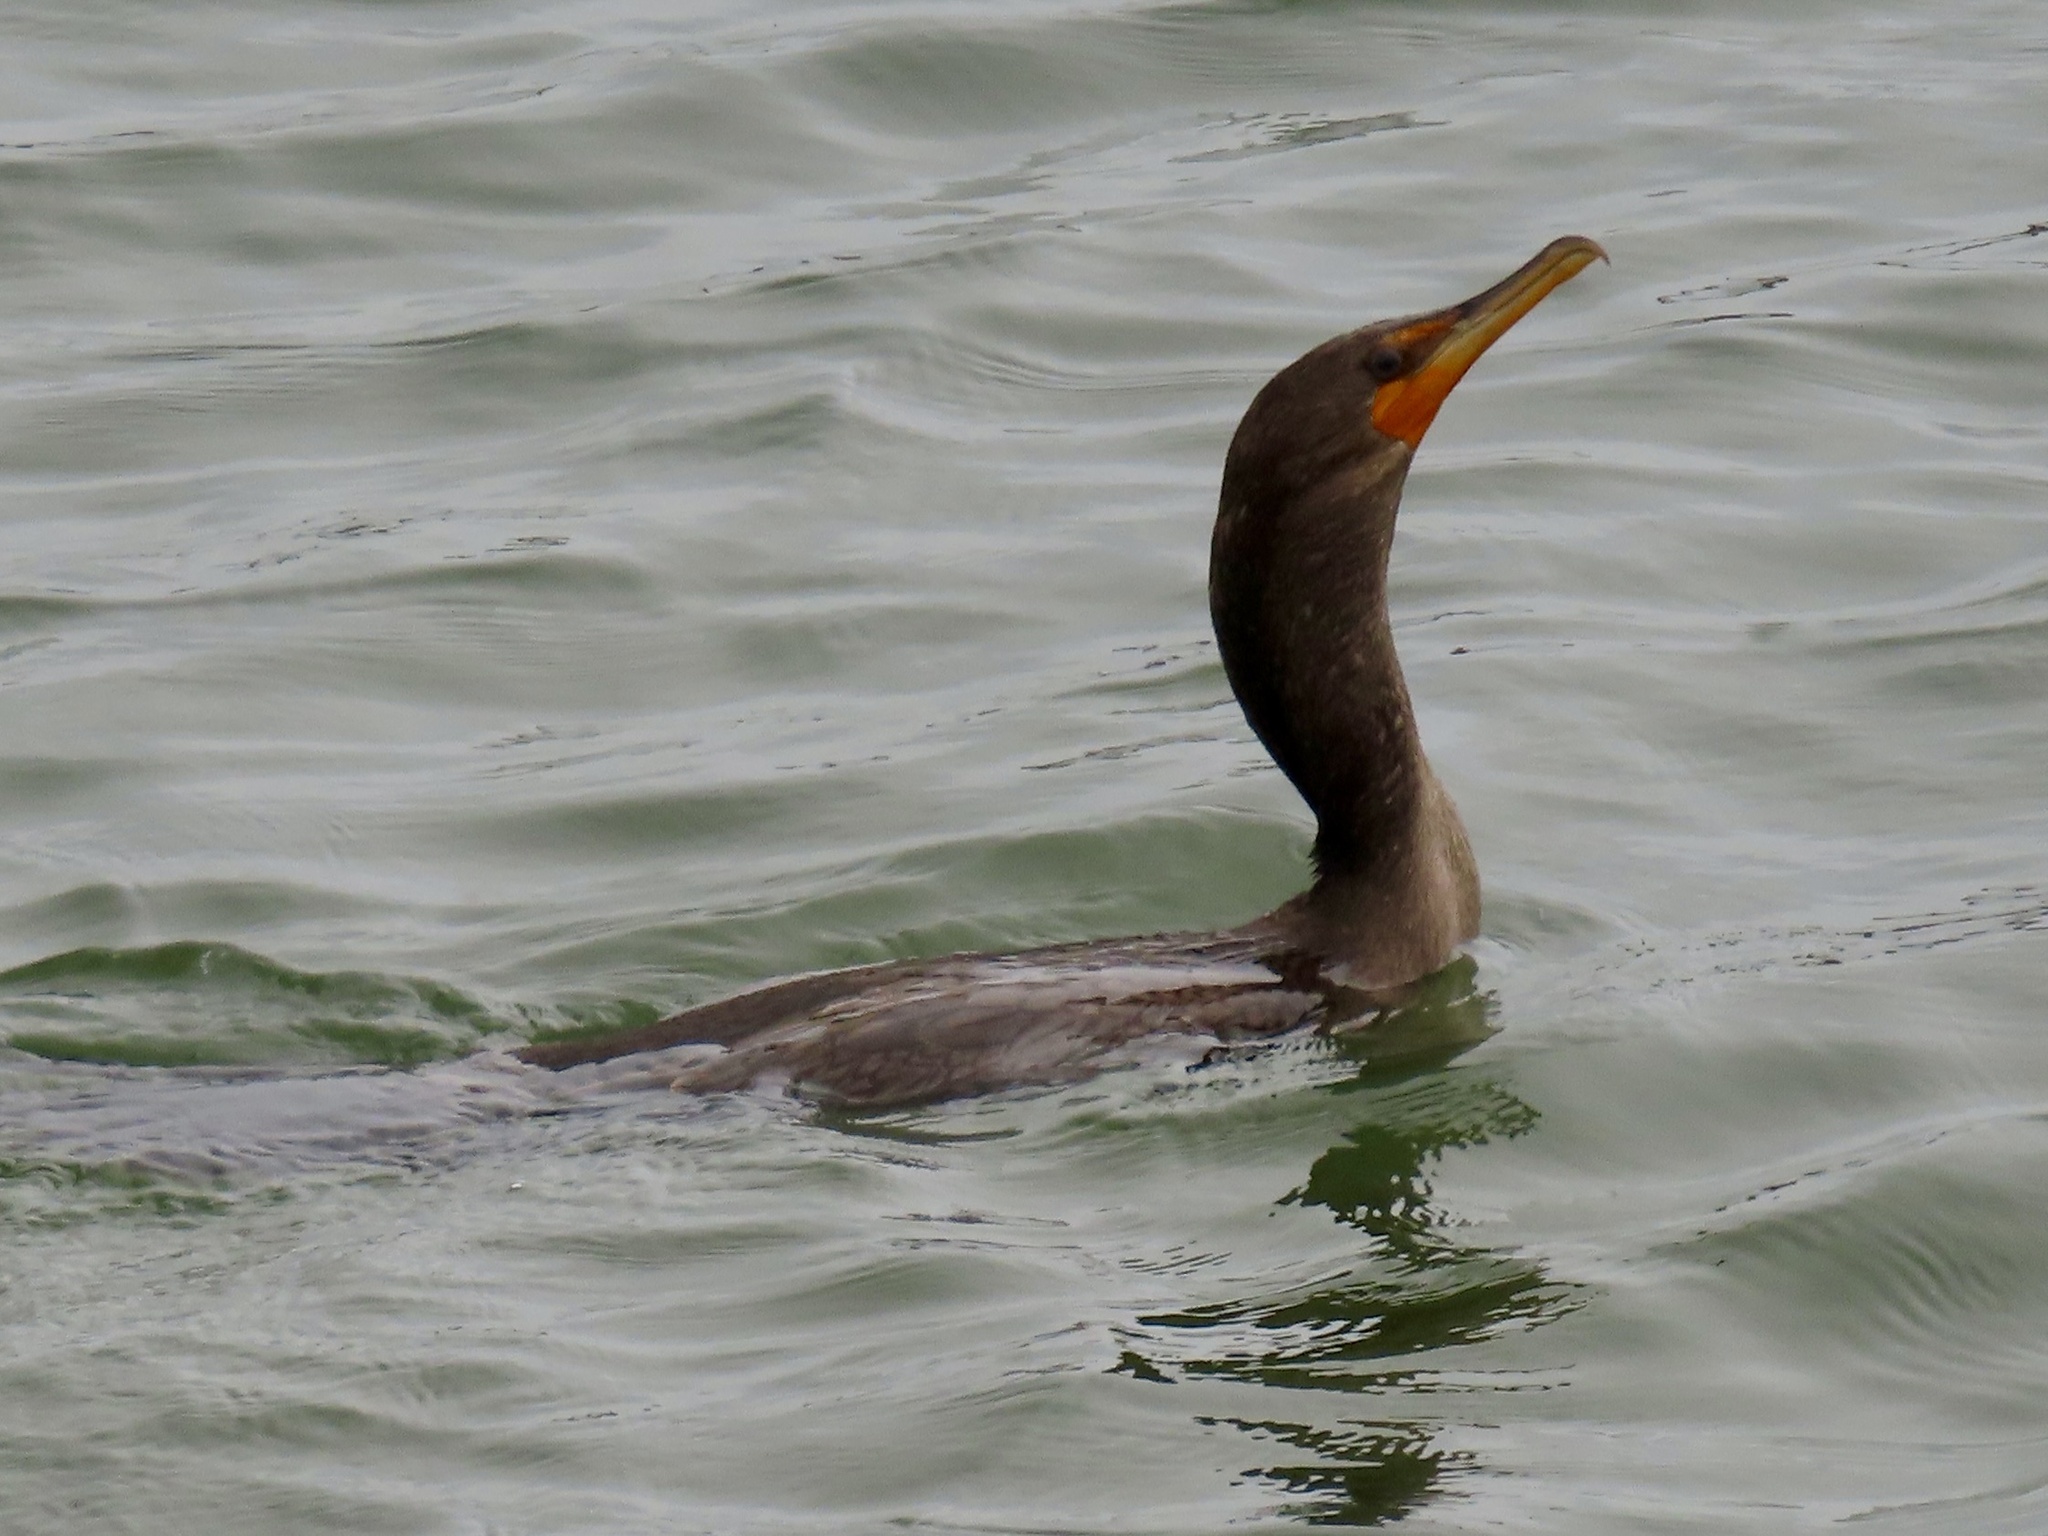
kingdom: Animalia
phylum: Chordata
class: Aves
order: Suliformes
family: Phalacrocoracidae
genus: Phalacrocorax
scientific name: Phalacrocorax auritus
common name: Double-crested cormorant
